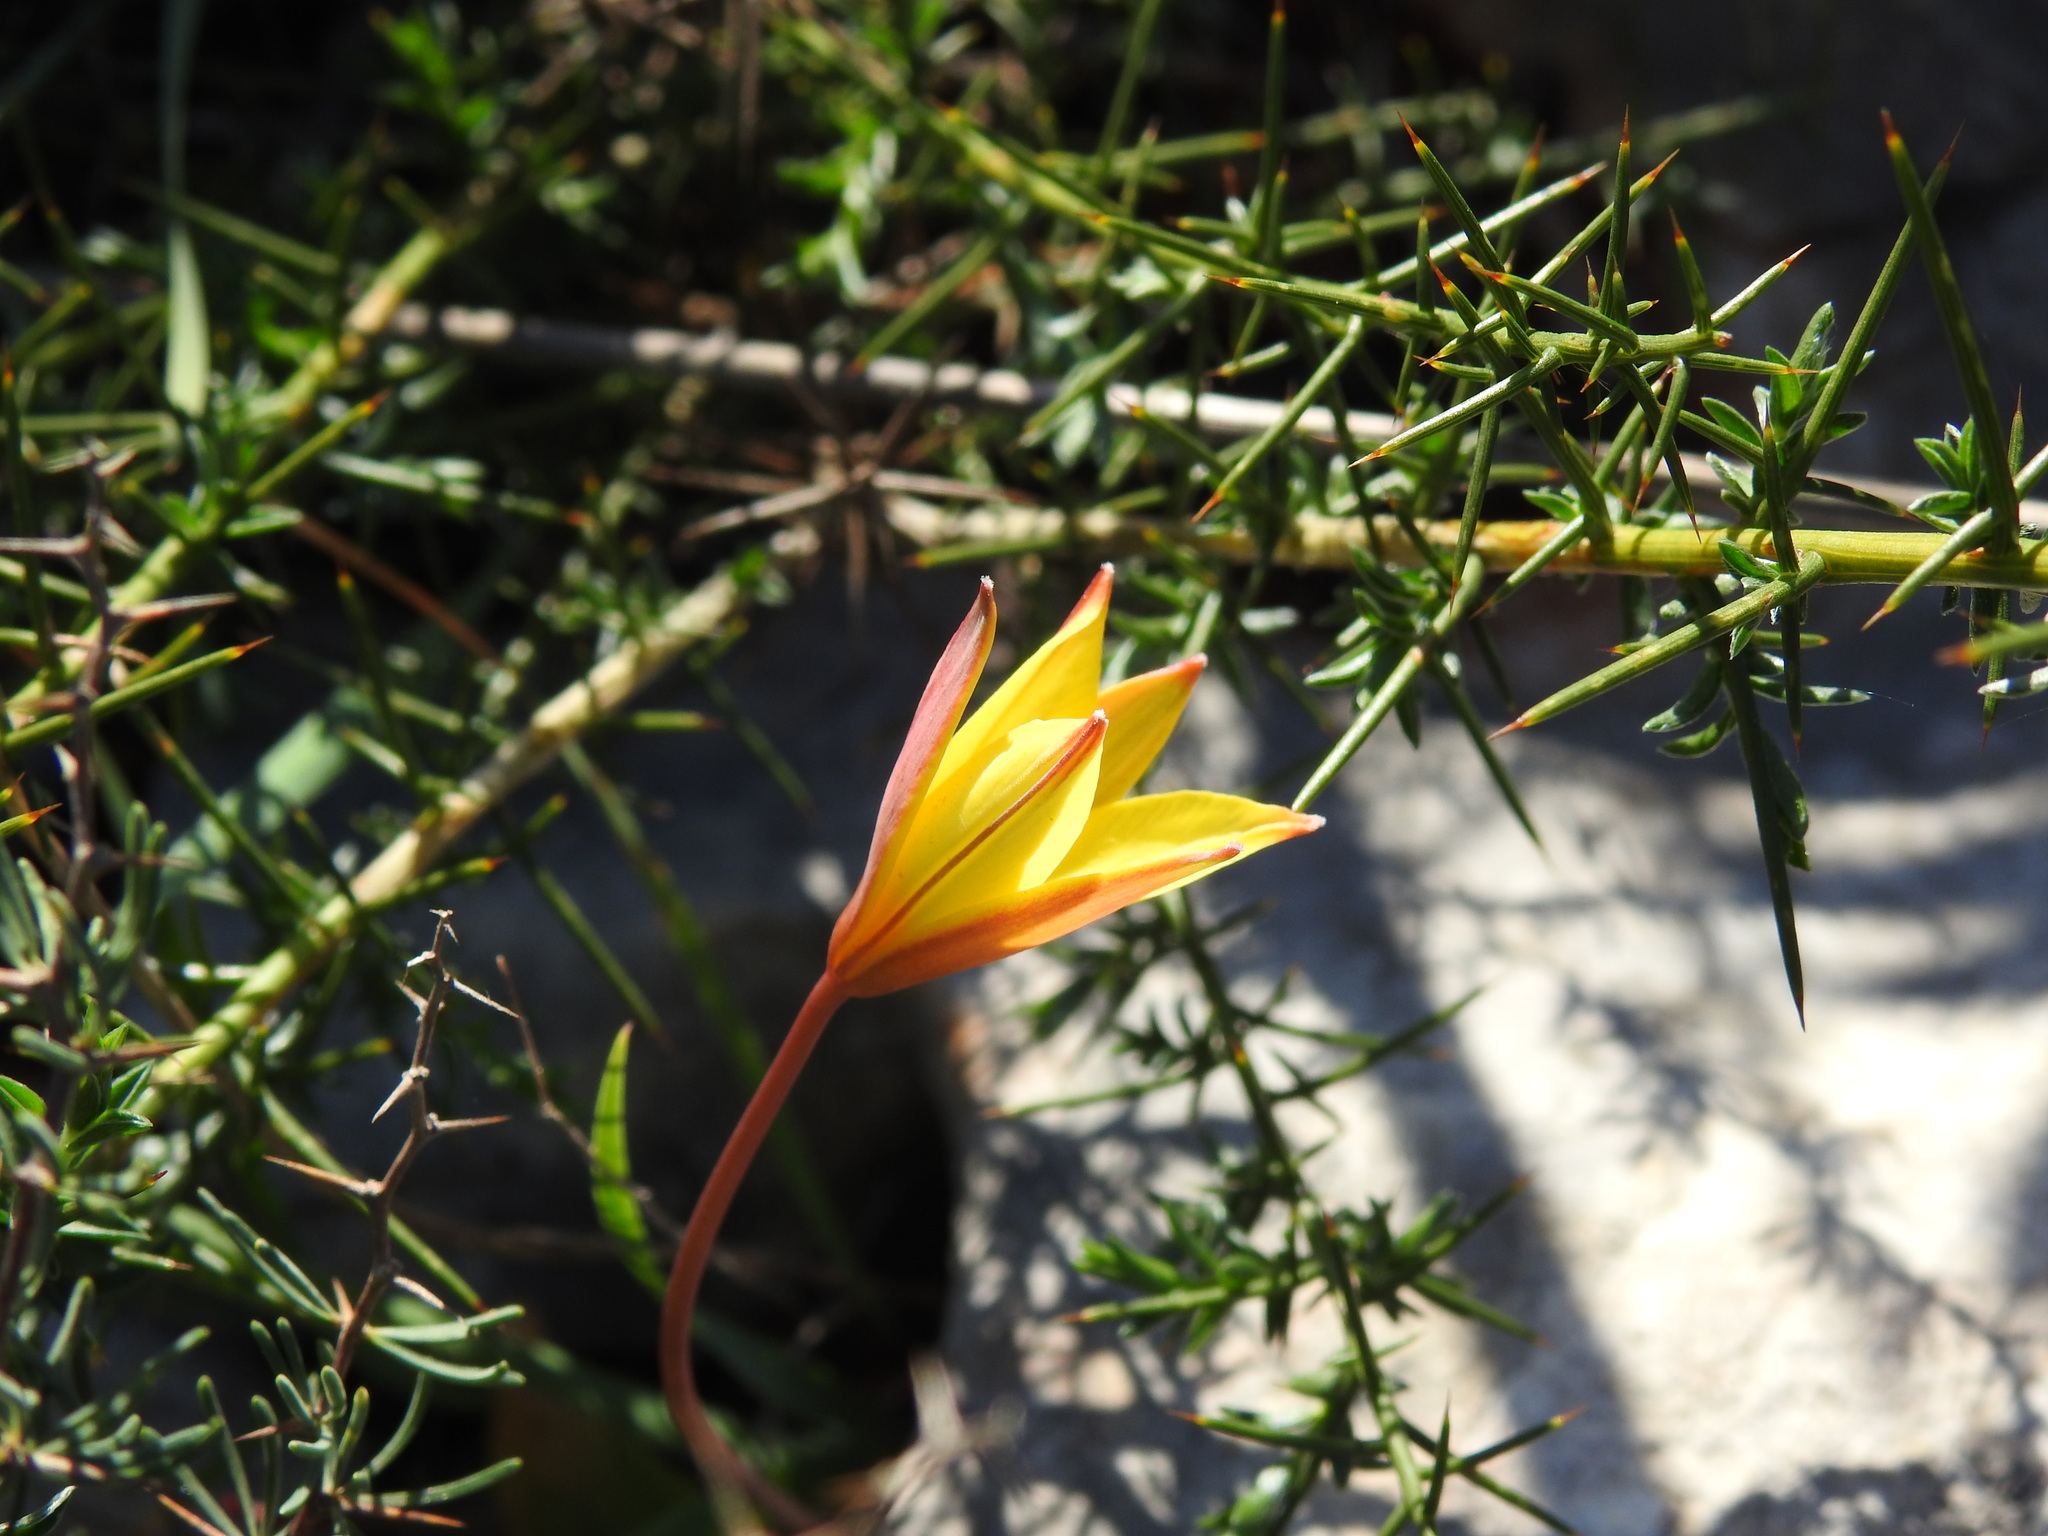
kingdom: Plantae
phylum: Tracheophyta
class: Liliopsida
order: Liliales
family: Liliaceae
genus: Tulipa
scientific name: Tulipa sylvestris
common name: Wild tulip
